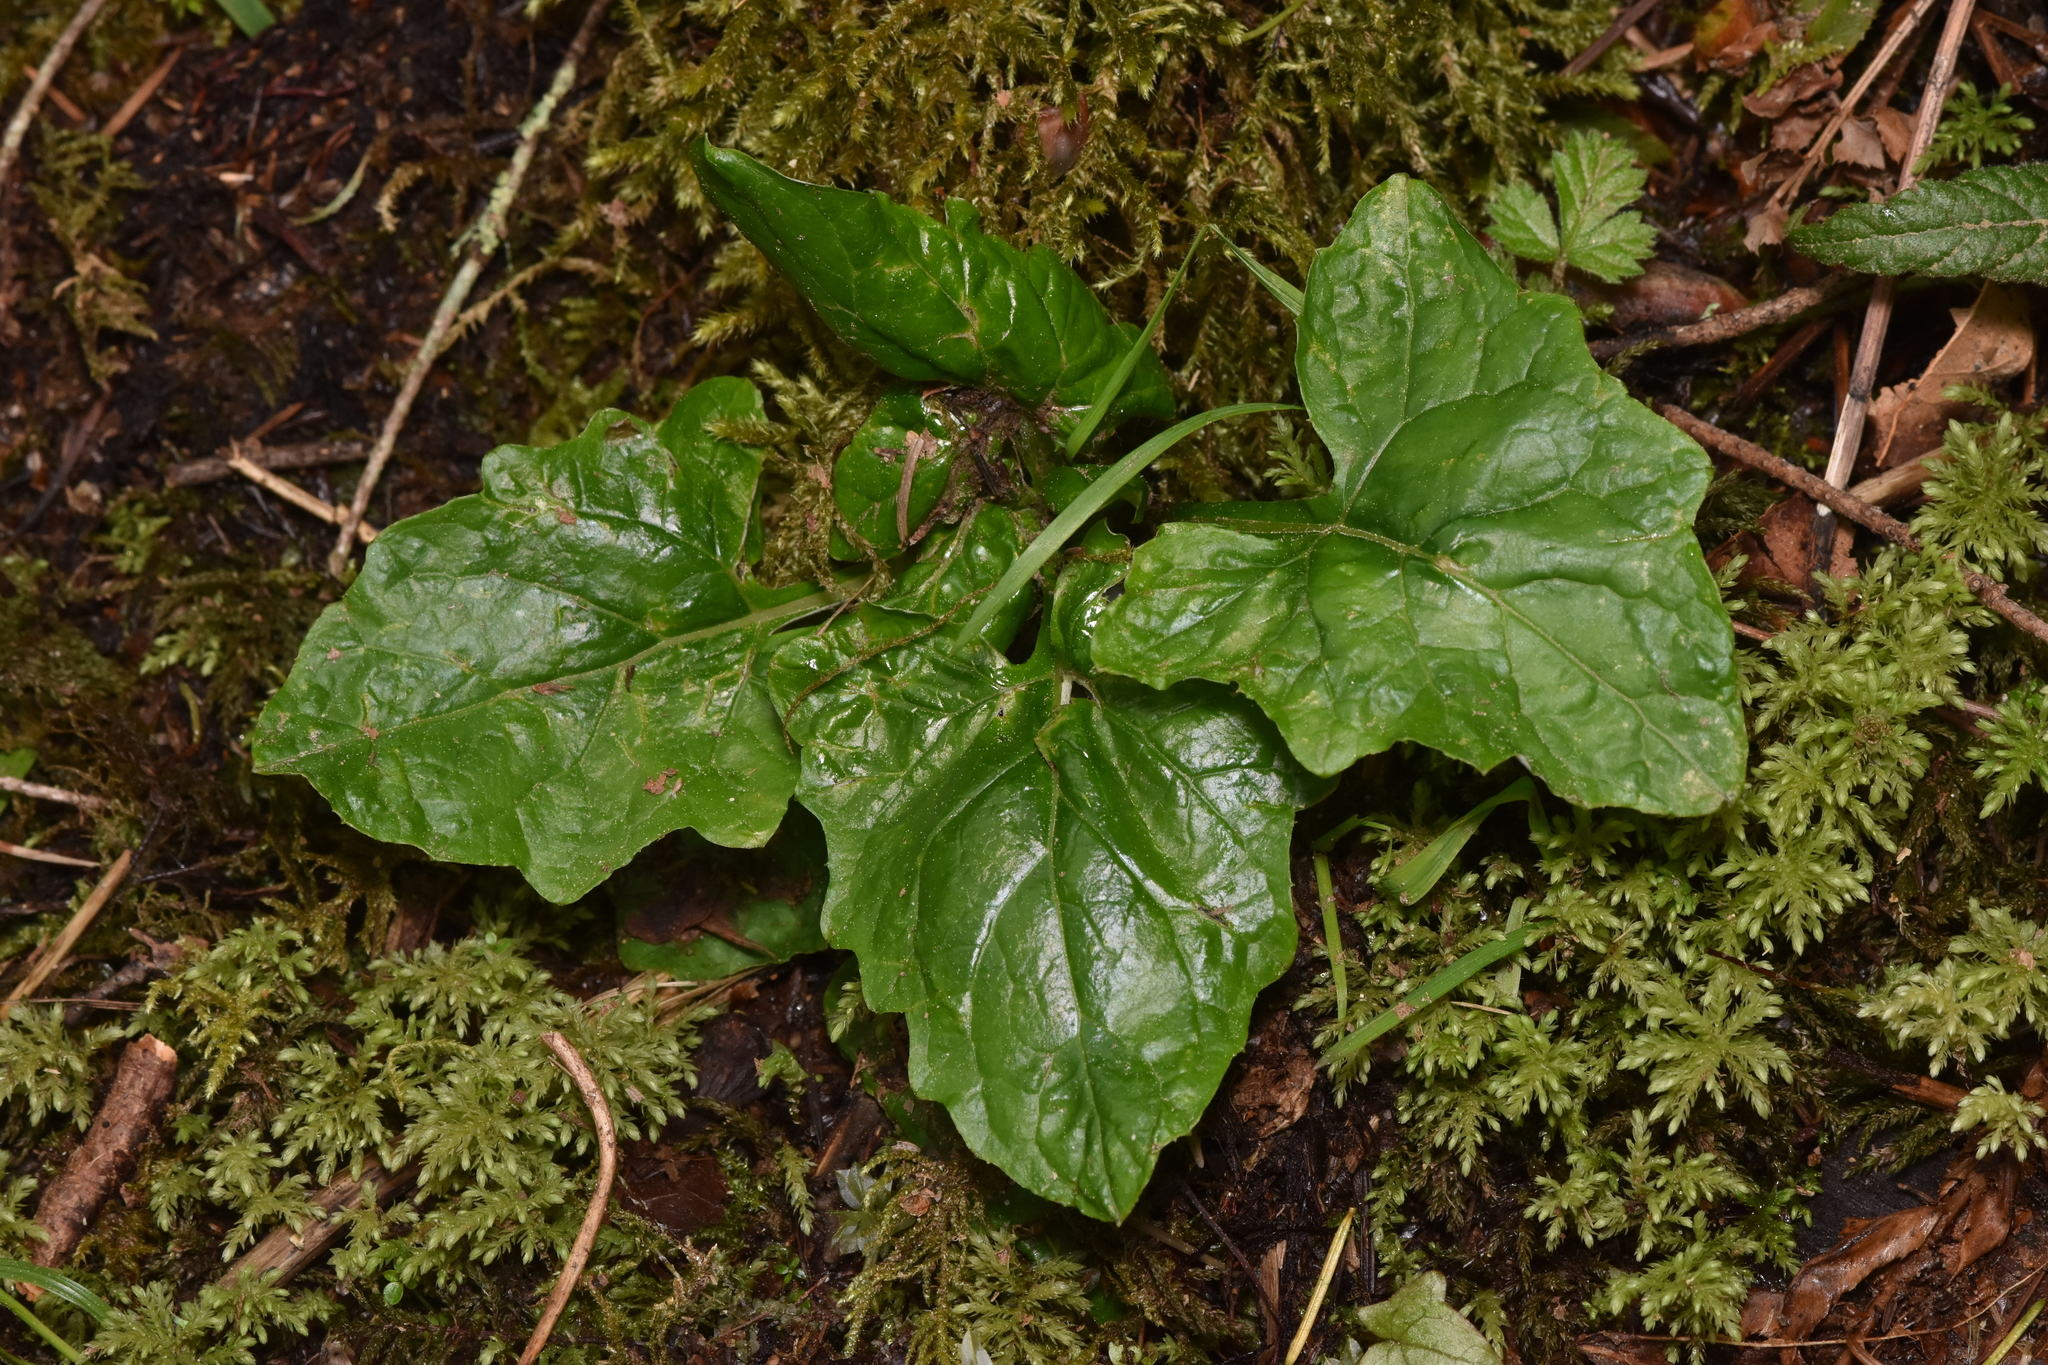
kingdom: Plantae
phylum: Tracheophyta
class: Magnoliopsida
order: Asterales
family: Asteraceae
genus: Adenocaulon
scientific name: Adenocaulon bicolor
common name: Trailplant
